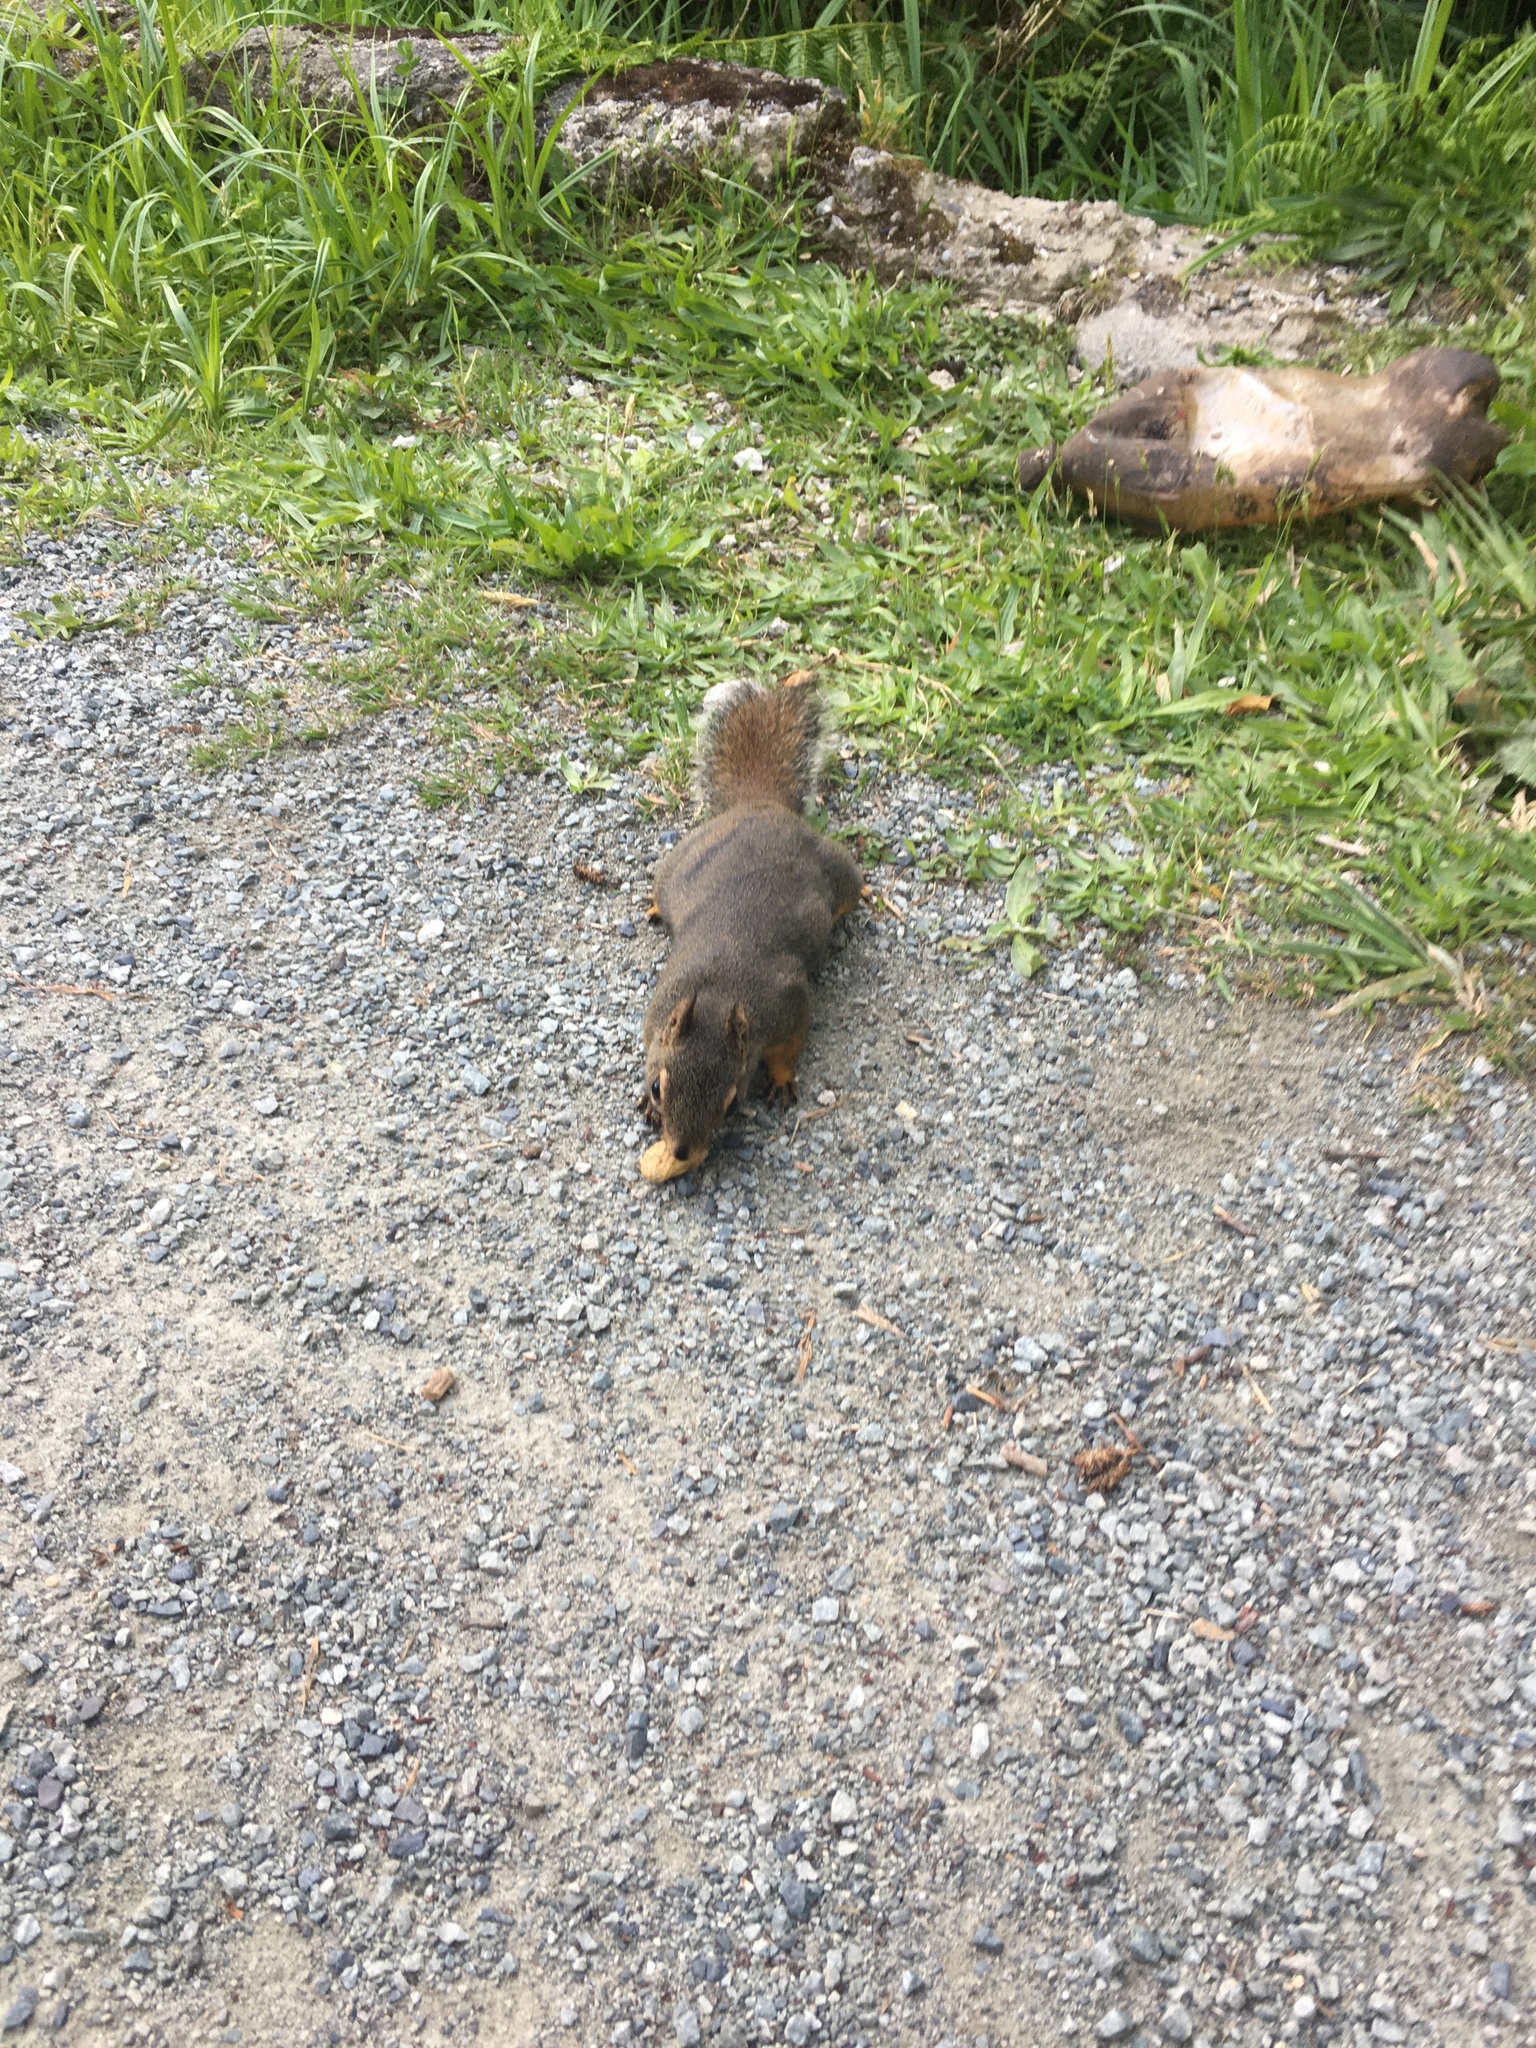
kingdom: Animalia
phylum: Chordata
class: Mammalia
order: Rodentia
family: Sciuridae
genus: Tamiasciurus
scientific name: Tamiasciurus douglasii
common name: Douglas's squirrel
